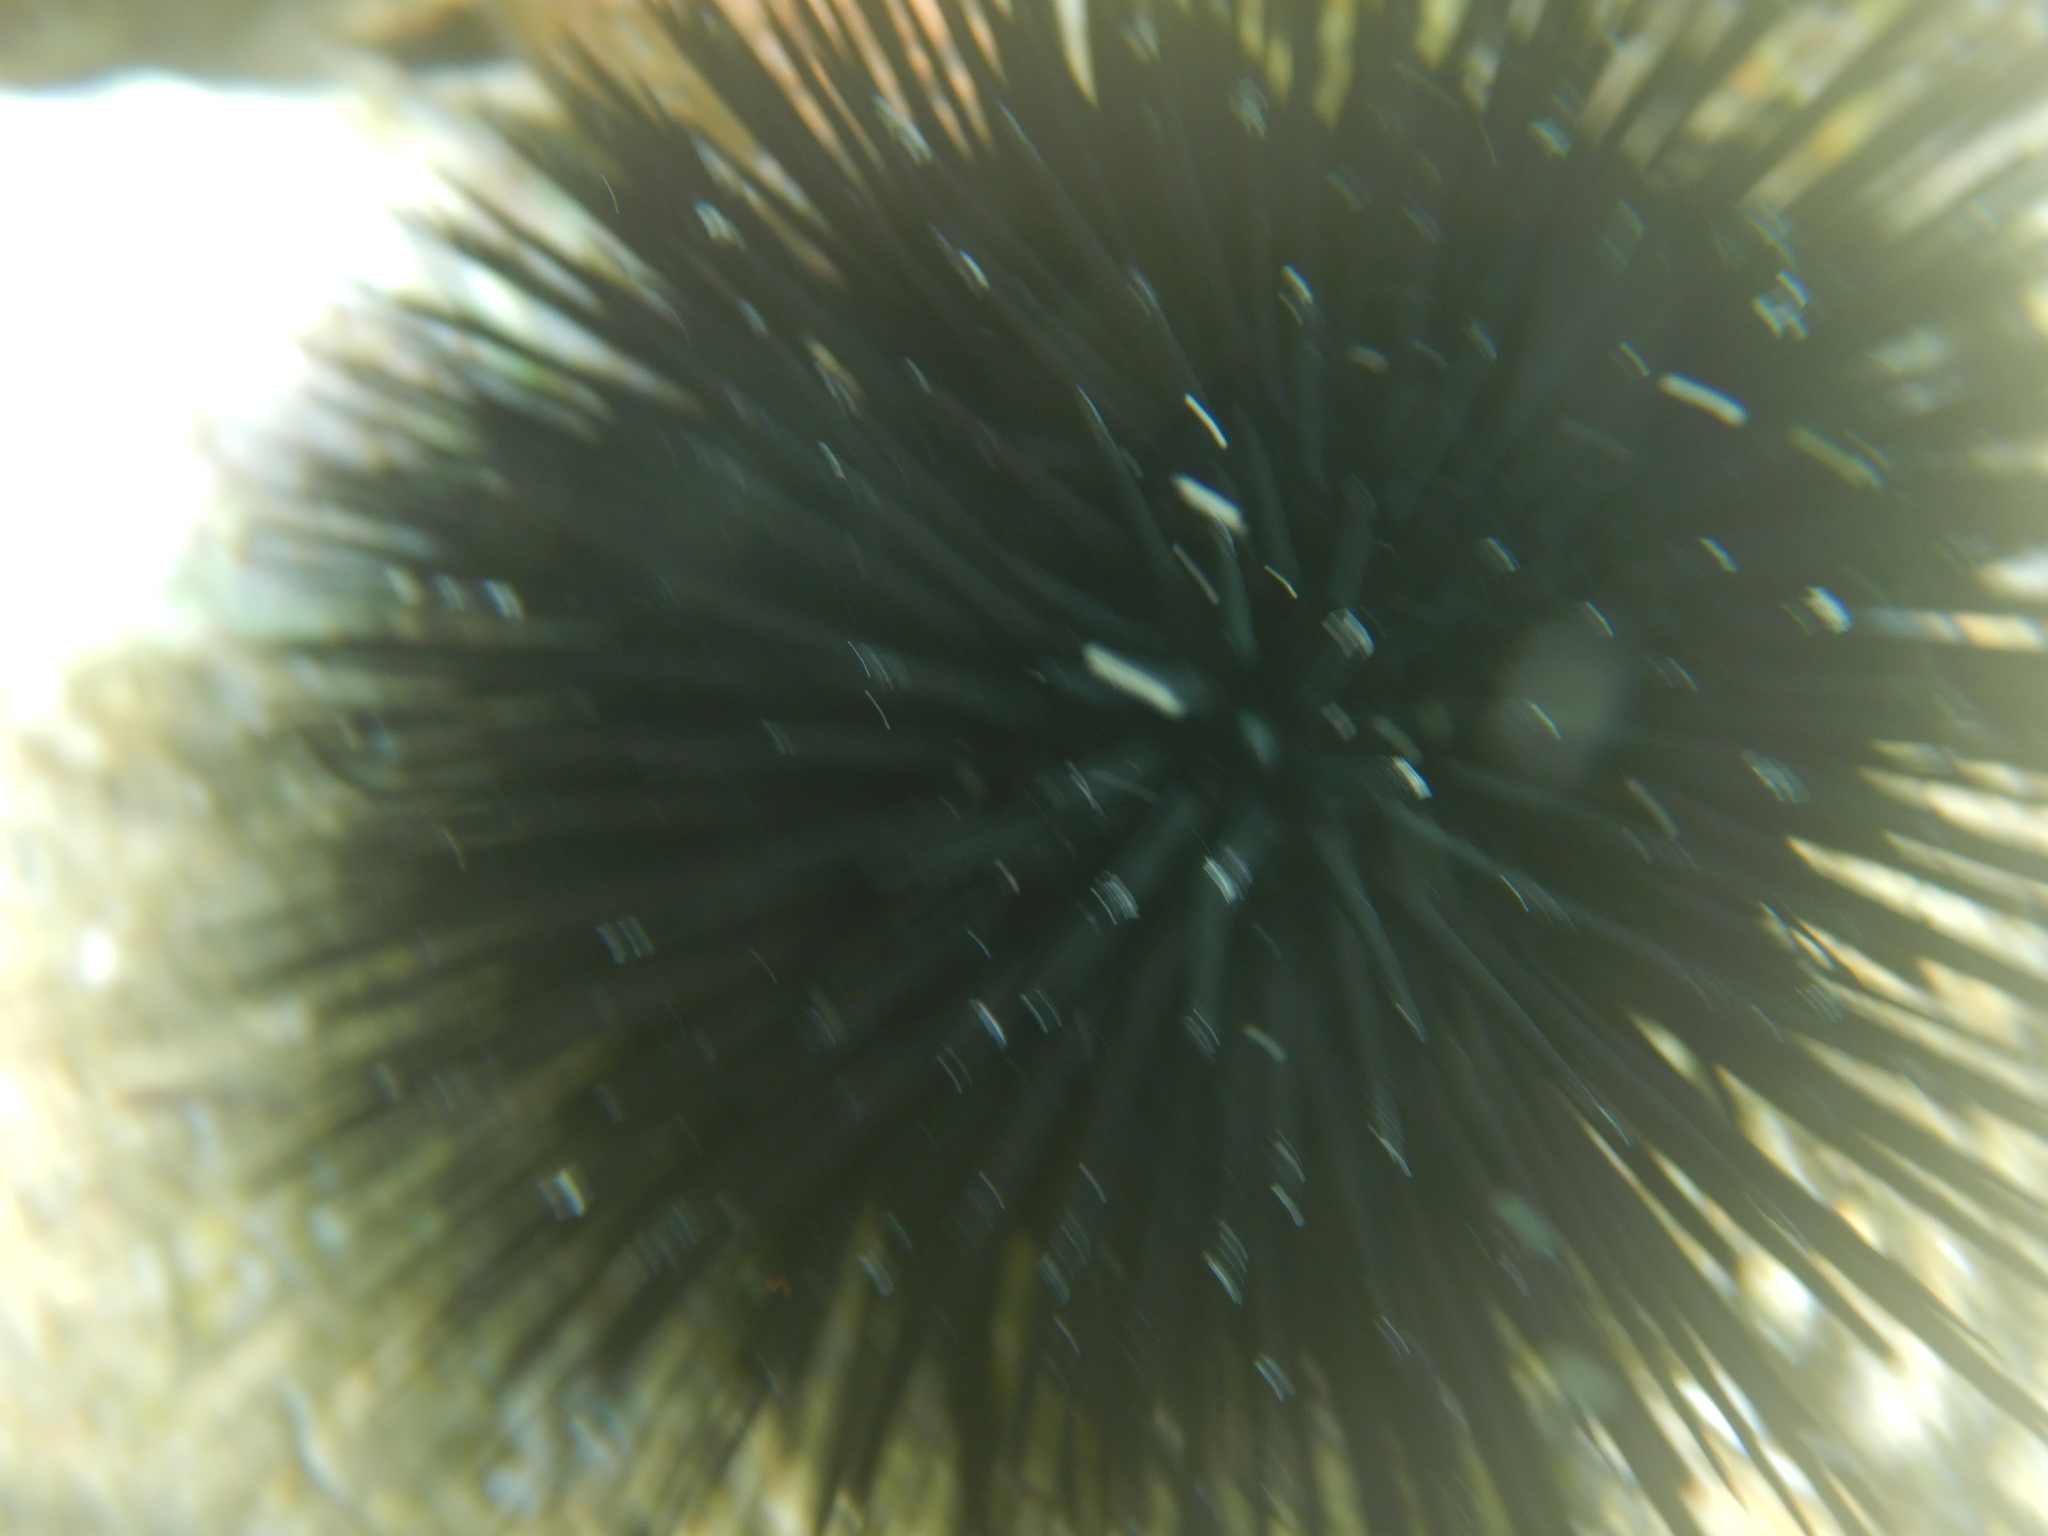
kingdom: Animalia
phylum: Echinodermata
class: Echinoidea
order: Arbacioida
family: Arbaciidae
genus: Arbacia
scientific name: Arbacia lixula
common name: Black sea urchin
